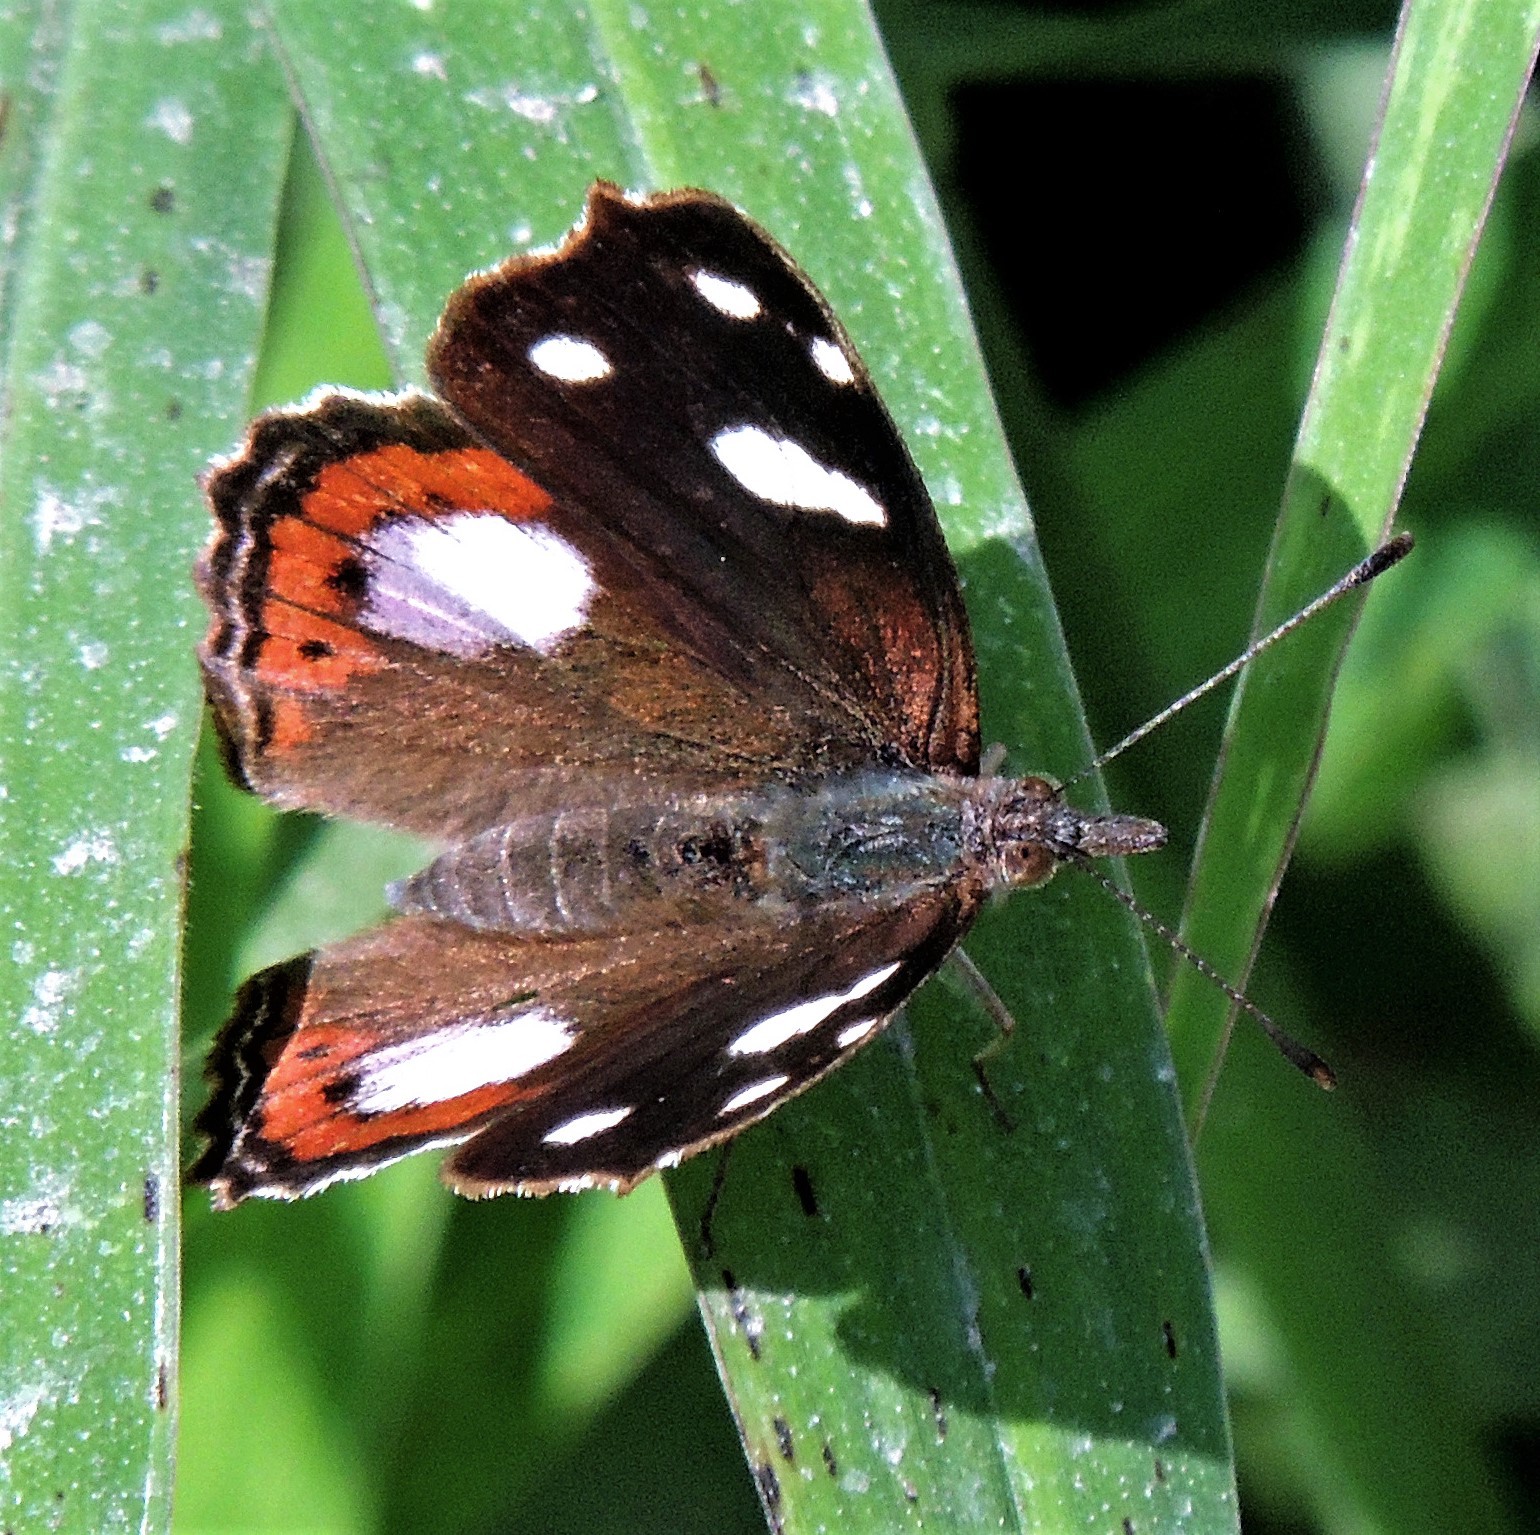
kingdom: Animalia
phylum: Arthropoda
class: Insecta
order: Lepidoptera
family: Nymphalidae
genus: Cybdelis
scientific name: Cybdelis
